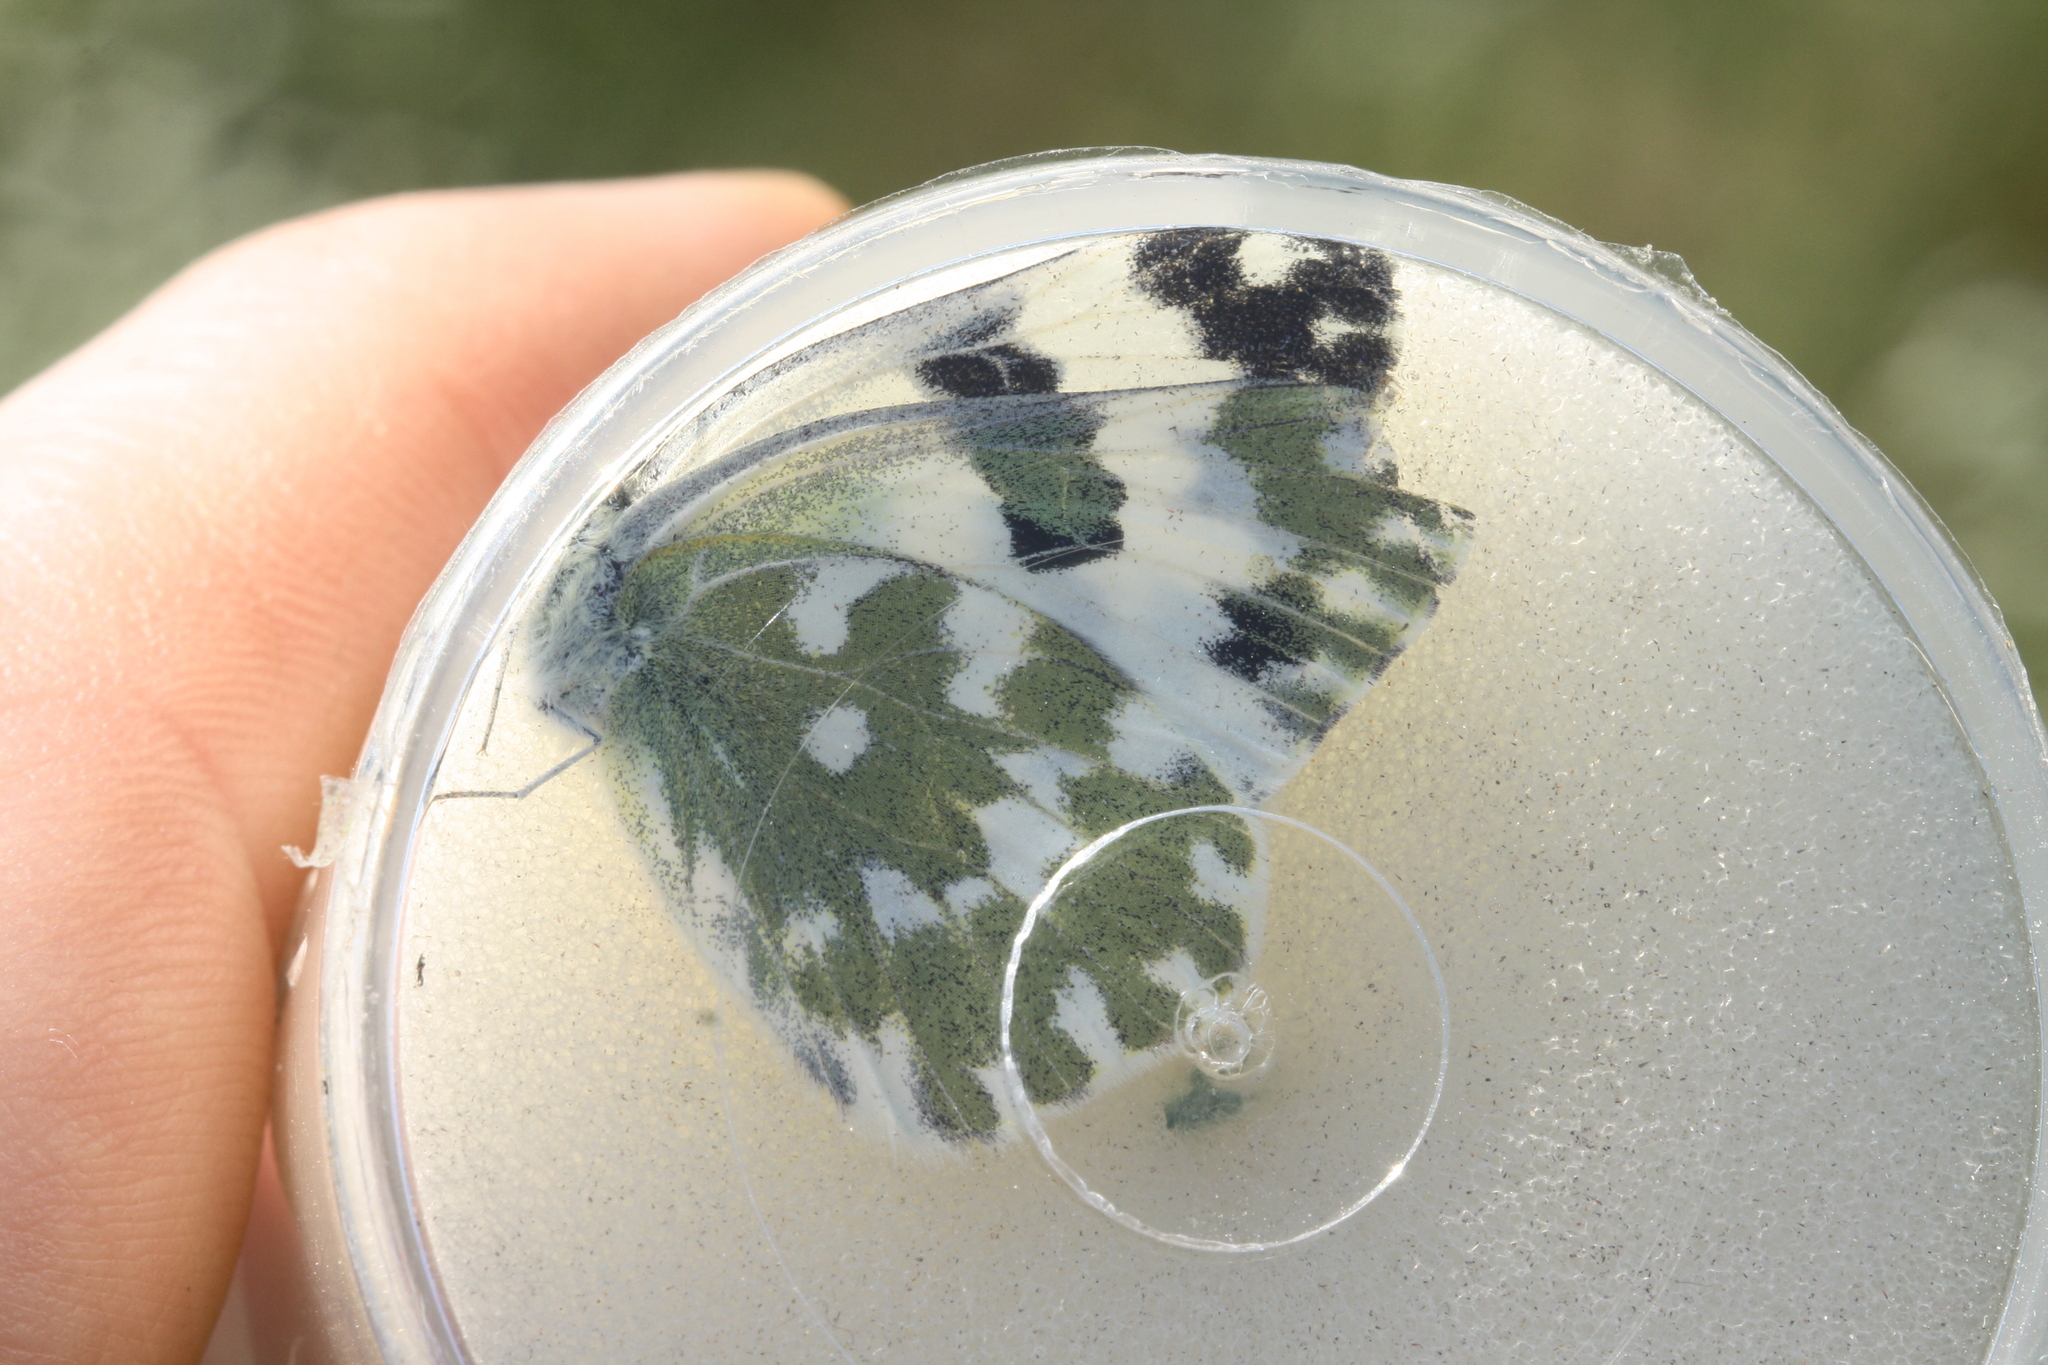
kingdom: Animalia
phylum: Arthropoda
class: Insecta
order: Lepidoptera
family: Pieridae
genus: Pontia
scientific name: Pontia edusa
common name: Eastern bath white
